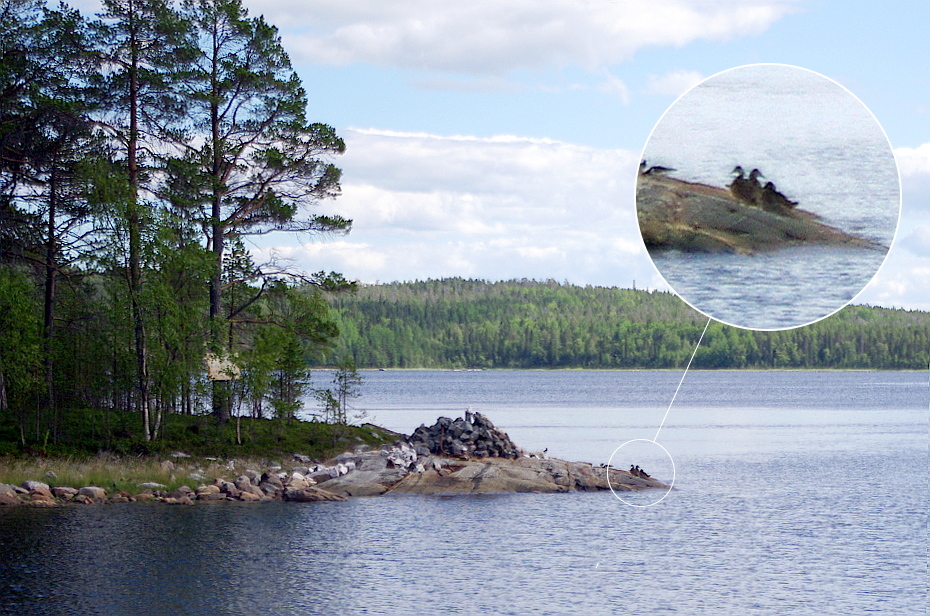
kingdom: Animalia
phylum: Chordata
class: Aves
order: Anseriformes
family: Anatidae
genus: Somateria
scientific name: Somateria mollissima
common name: Common eider
